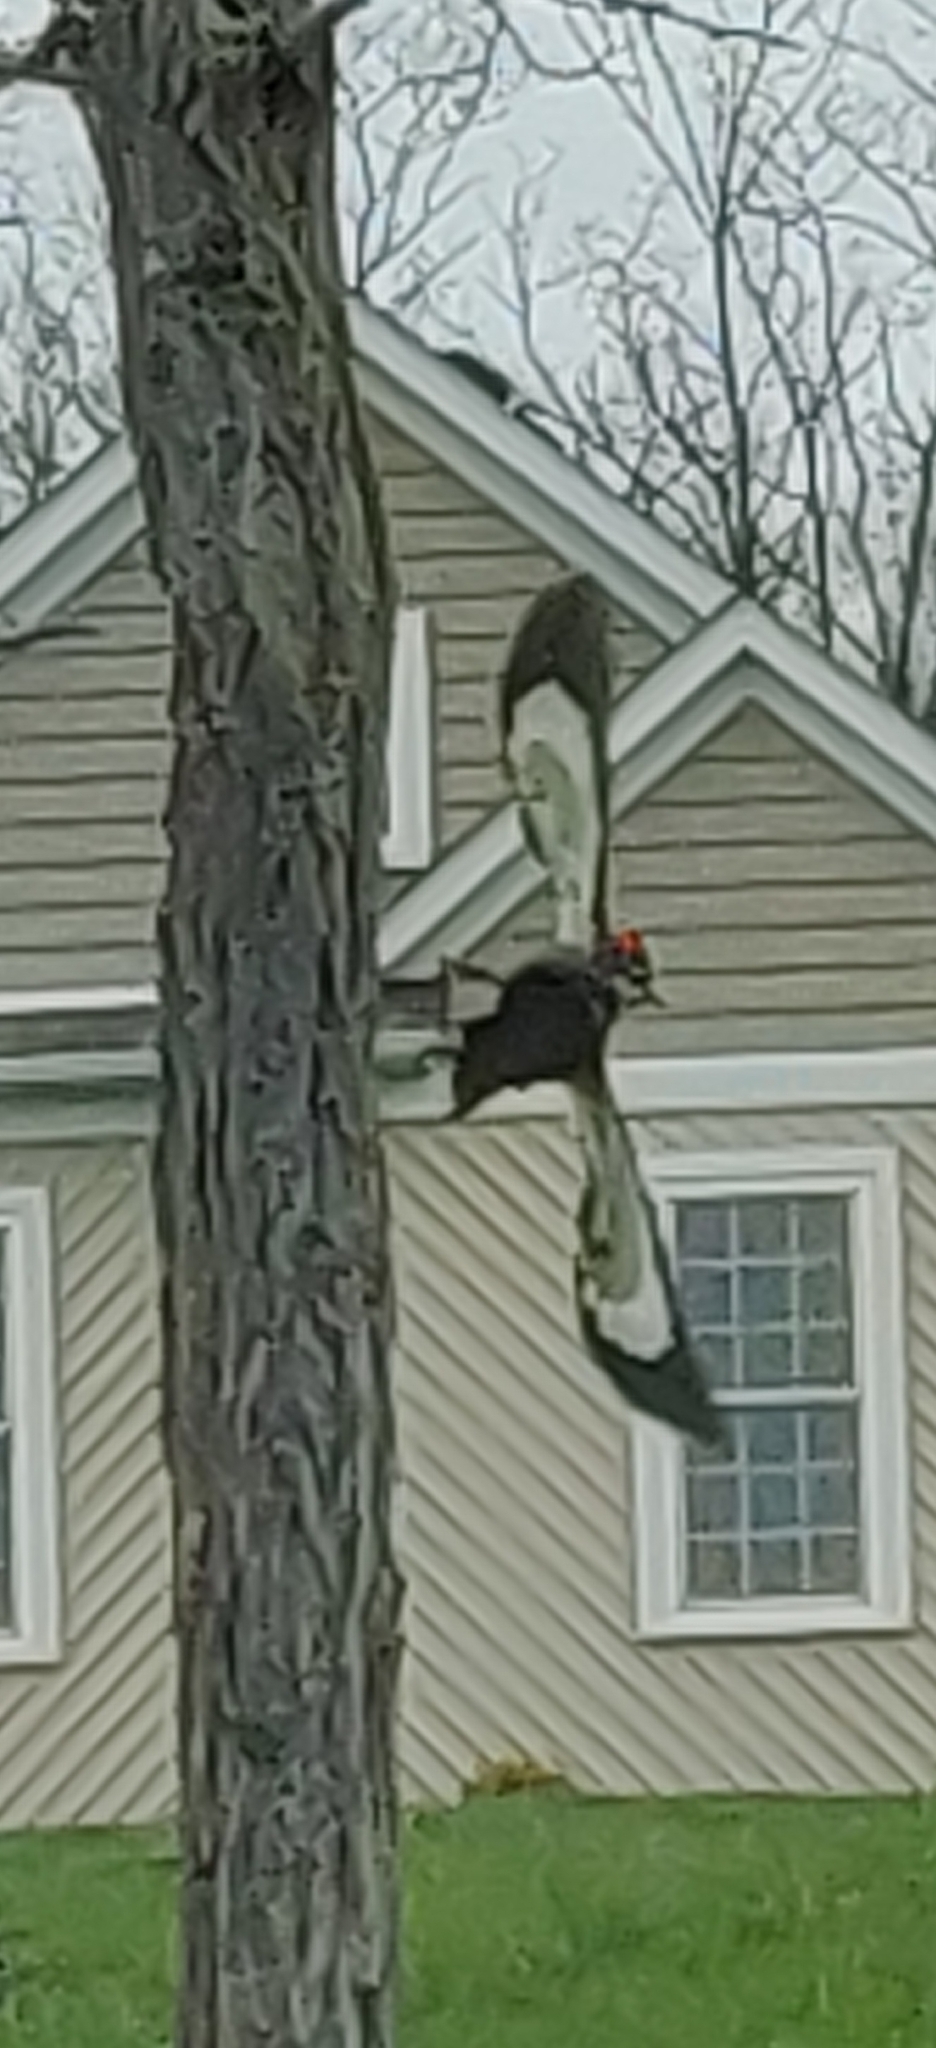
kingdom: Animalia
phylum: Chordata
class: Aves
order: Piciformes
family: Picidae
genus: Dryocopus
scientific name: Dryocopus pileatus
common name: Pileated woodpecker
